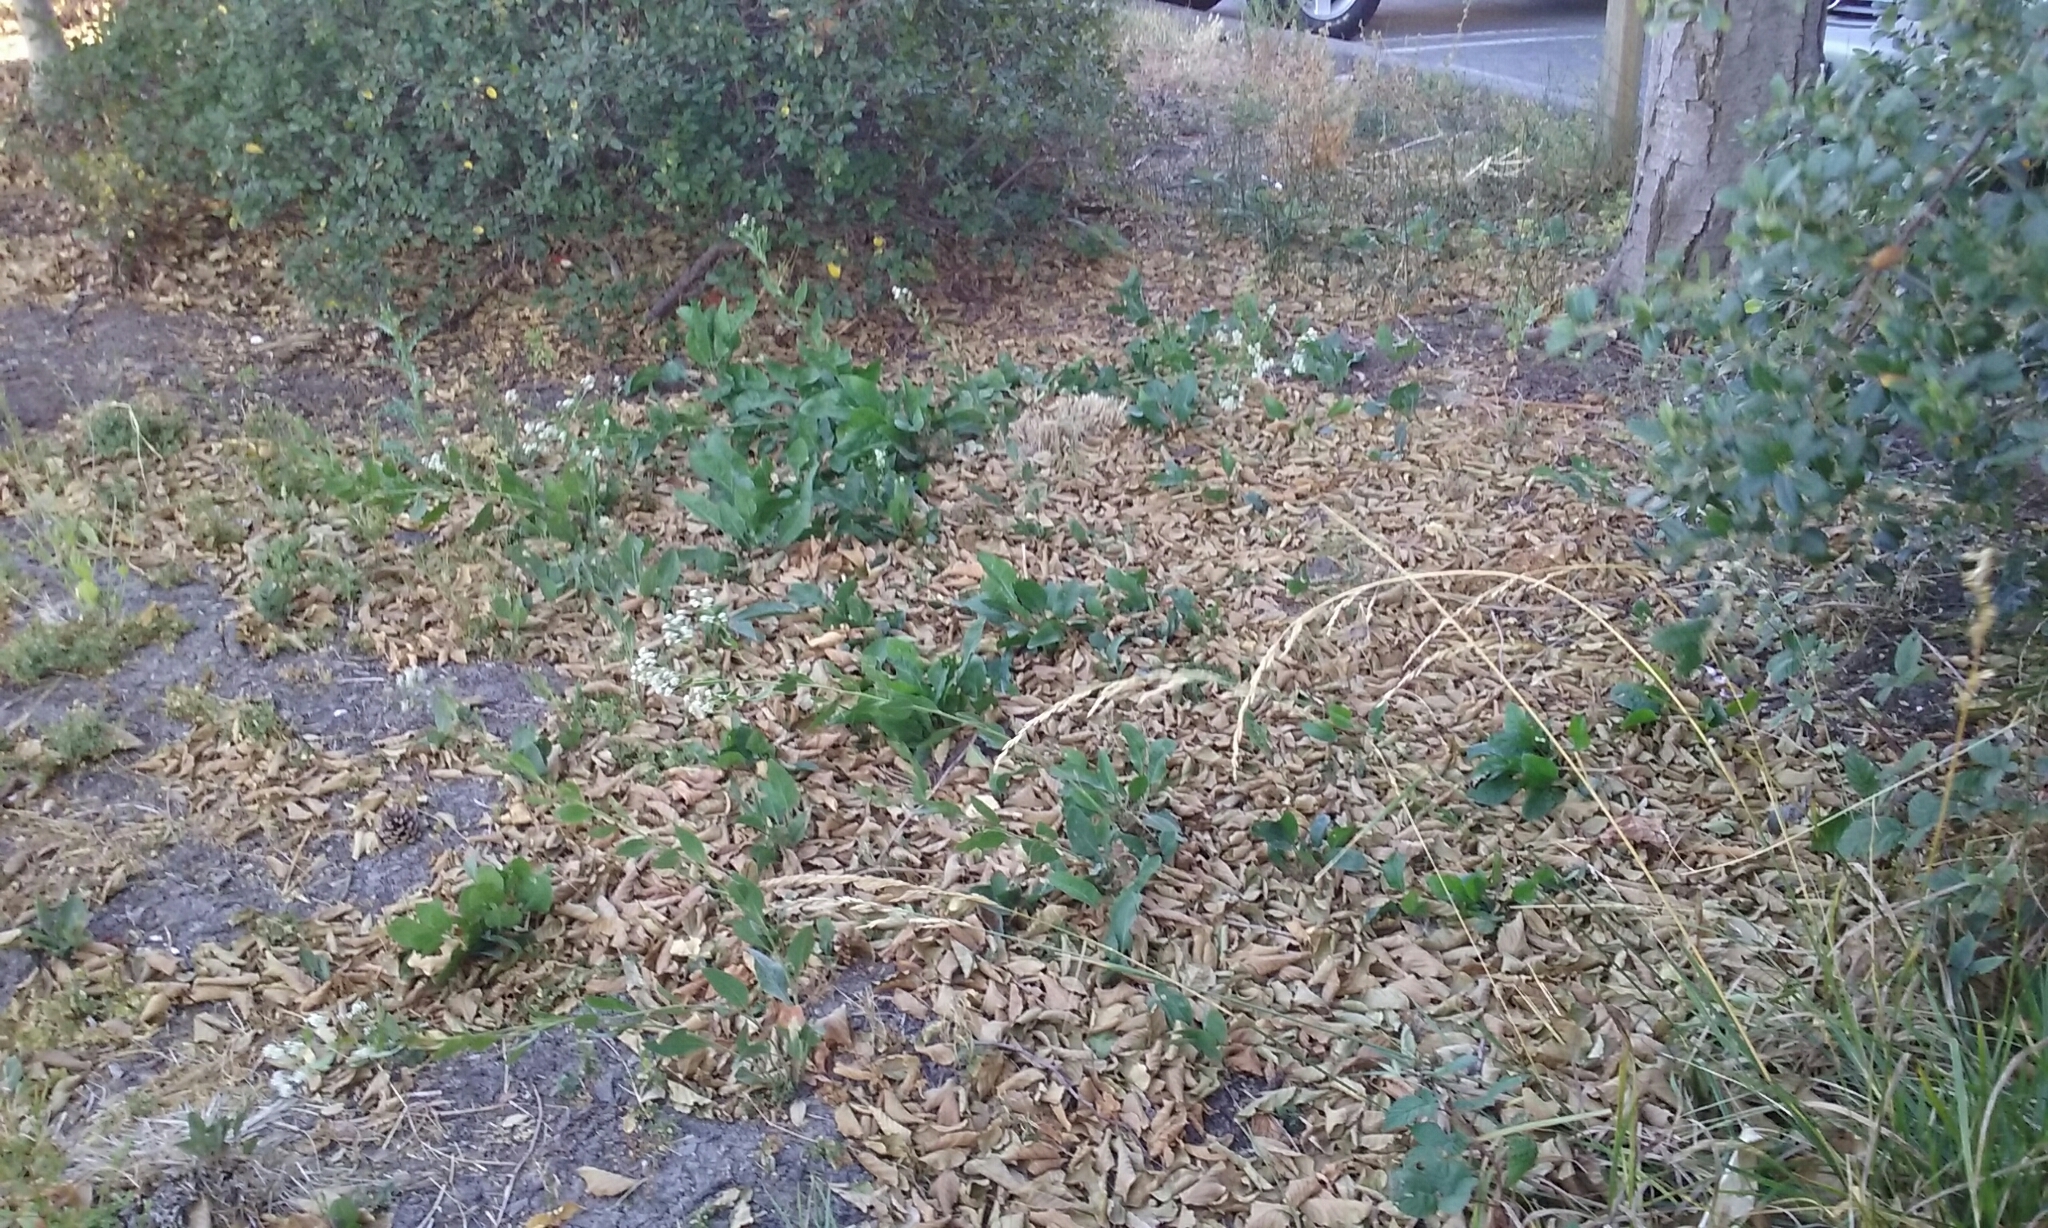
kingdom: Plantae
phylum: Tracheophyta
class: Magnoliopsida
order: Brassicales
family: Brassicaceae
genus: Lepidium
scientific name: Lepidium latifolium
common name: Dittander
